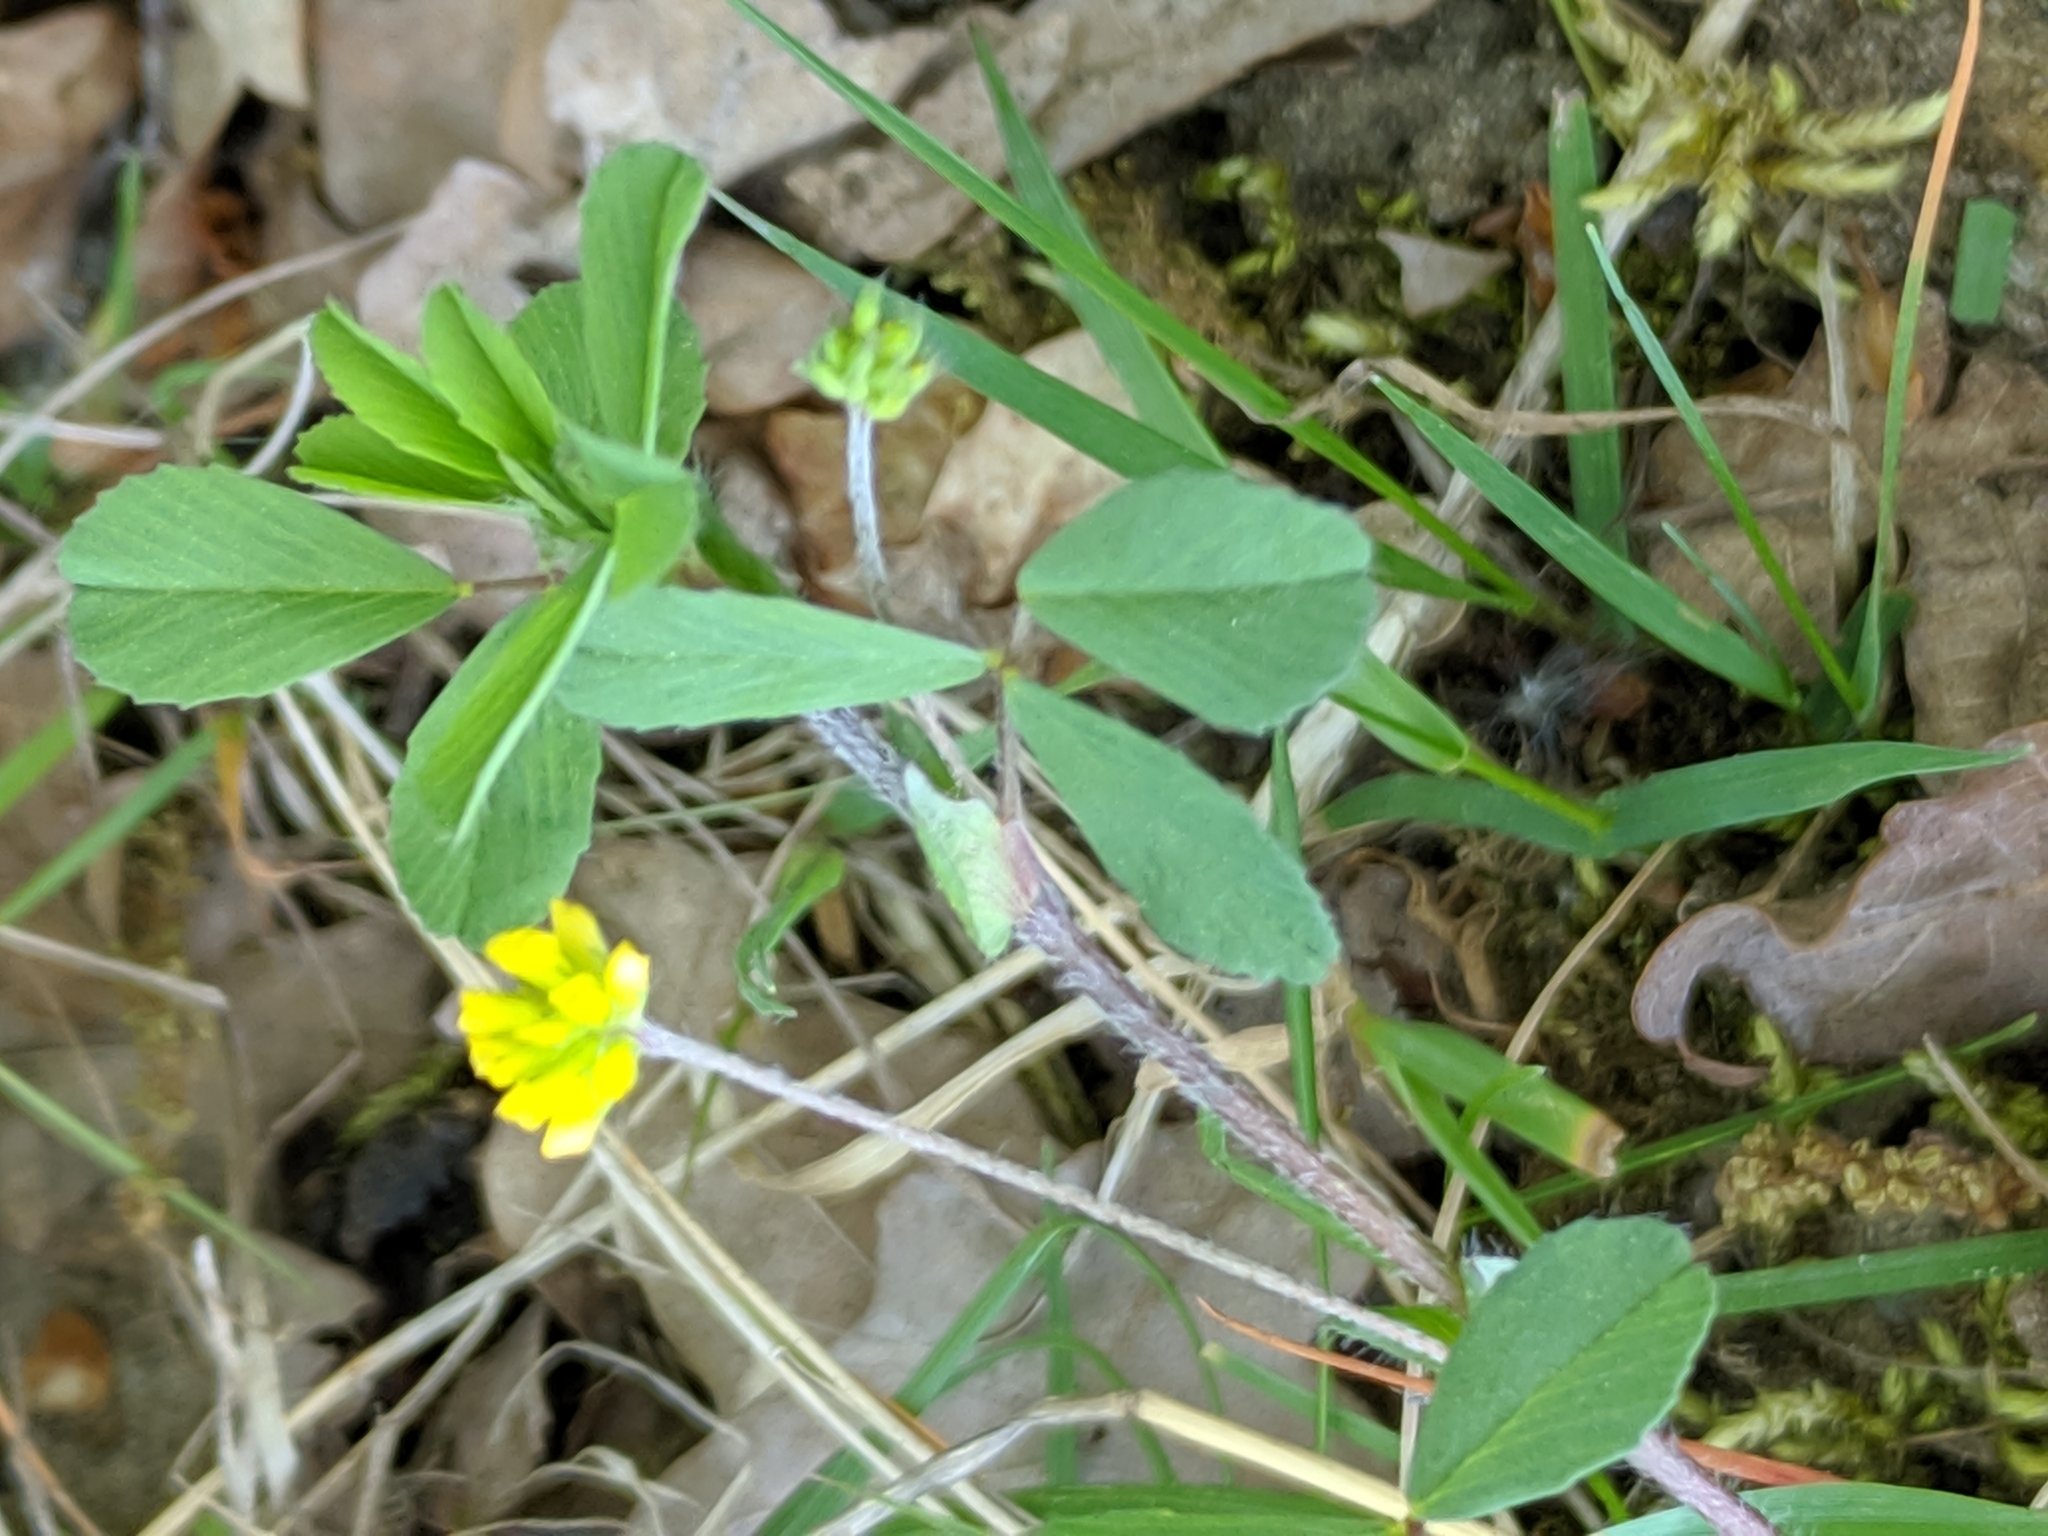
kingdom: Plantae
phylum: Tracheophyta
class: Magnoliopsida
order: Fabales
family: Fabaceae
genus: Trifolium
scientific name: Trifolium dubium
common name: Suckling clover
